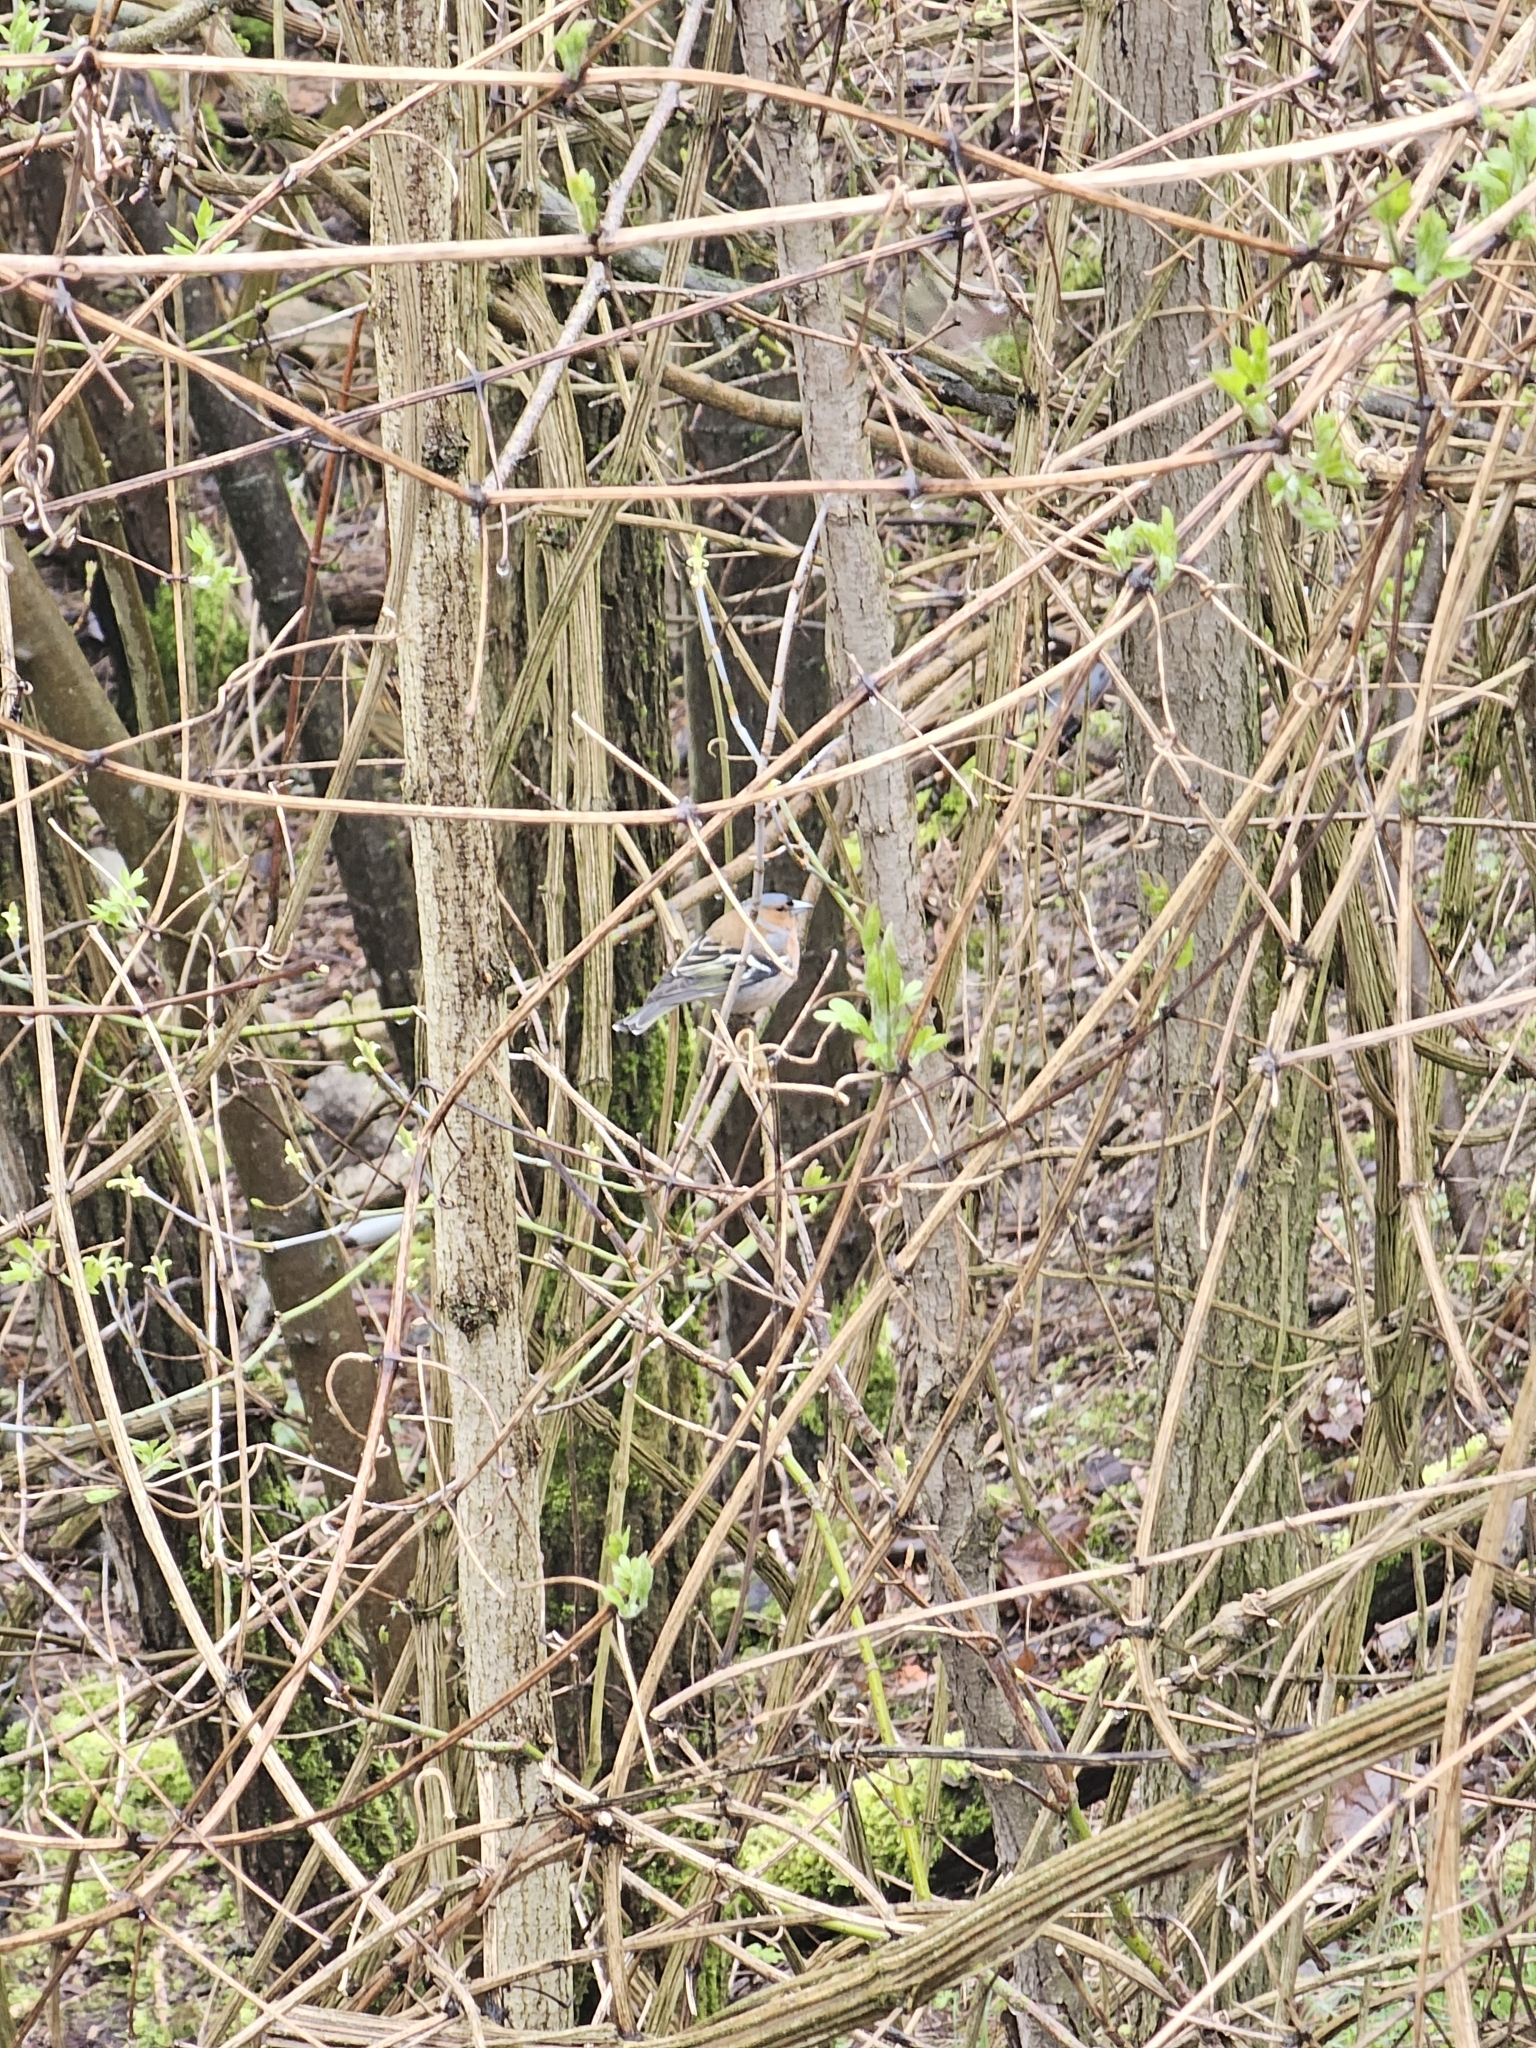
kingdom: Animalia
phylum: Chordata
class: Aves
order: Passeriformes
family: Fringillidae
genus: Fringilla
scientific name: Fringilla coelebs
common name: Common chaffinch
